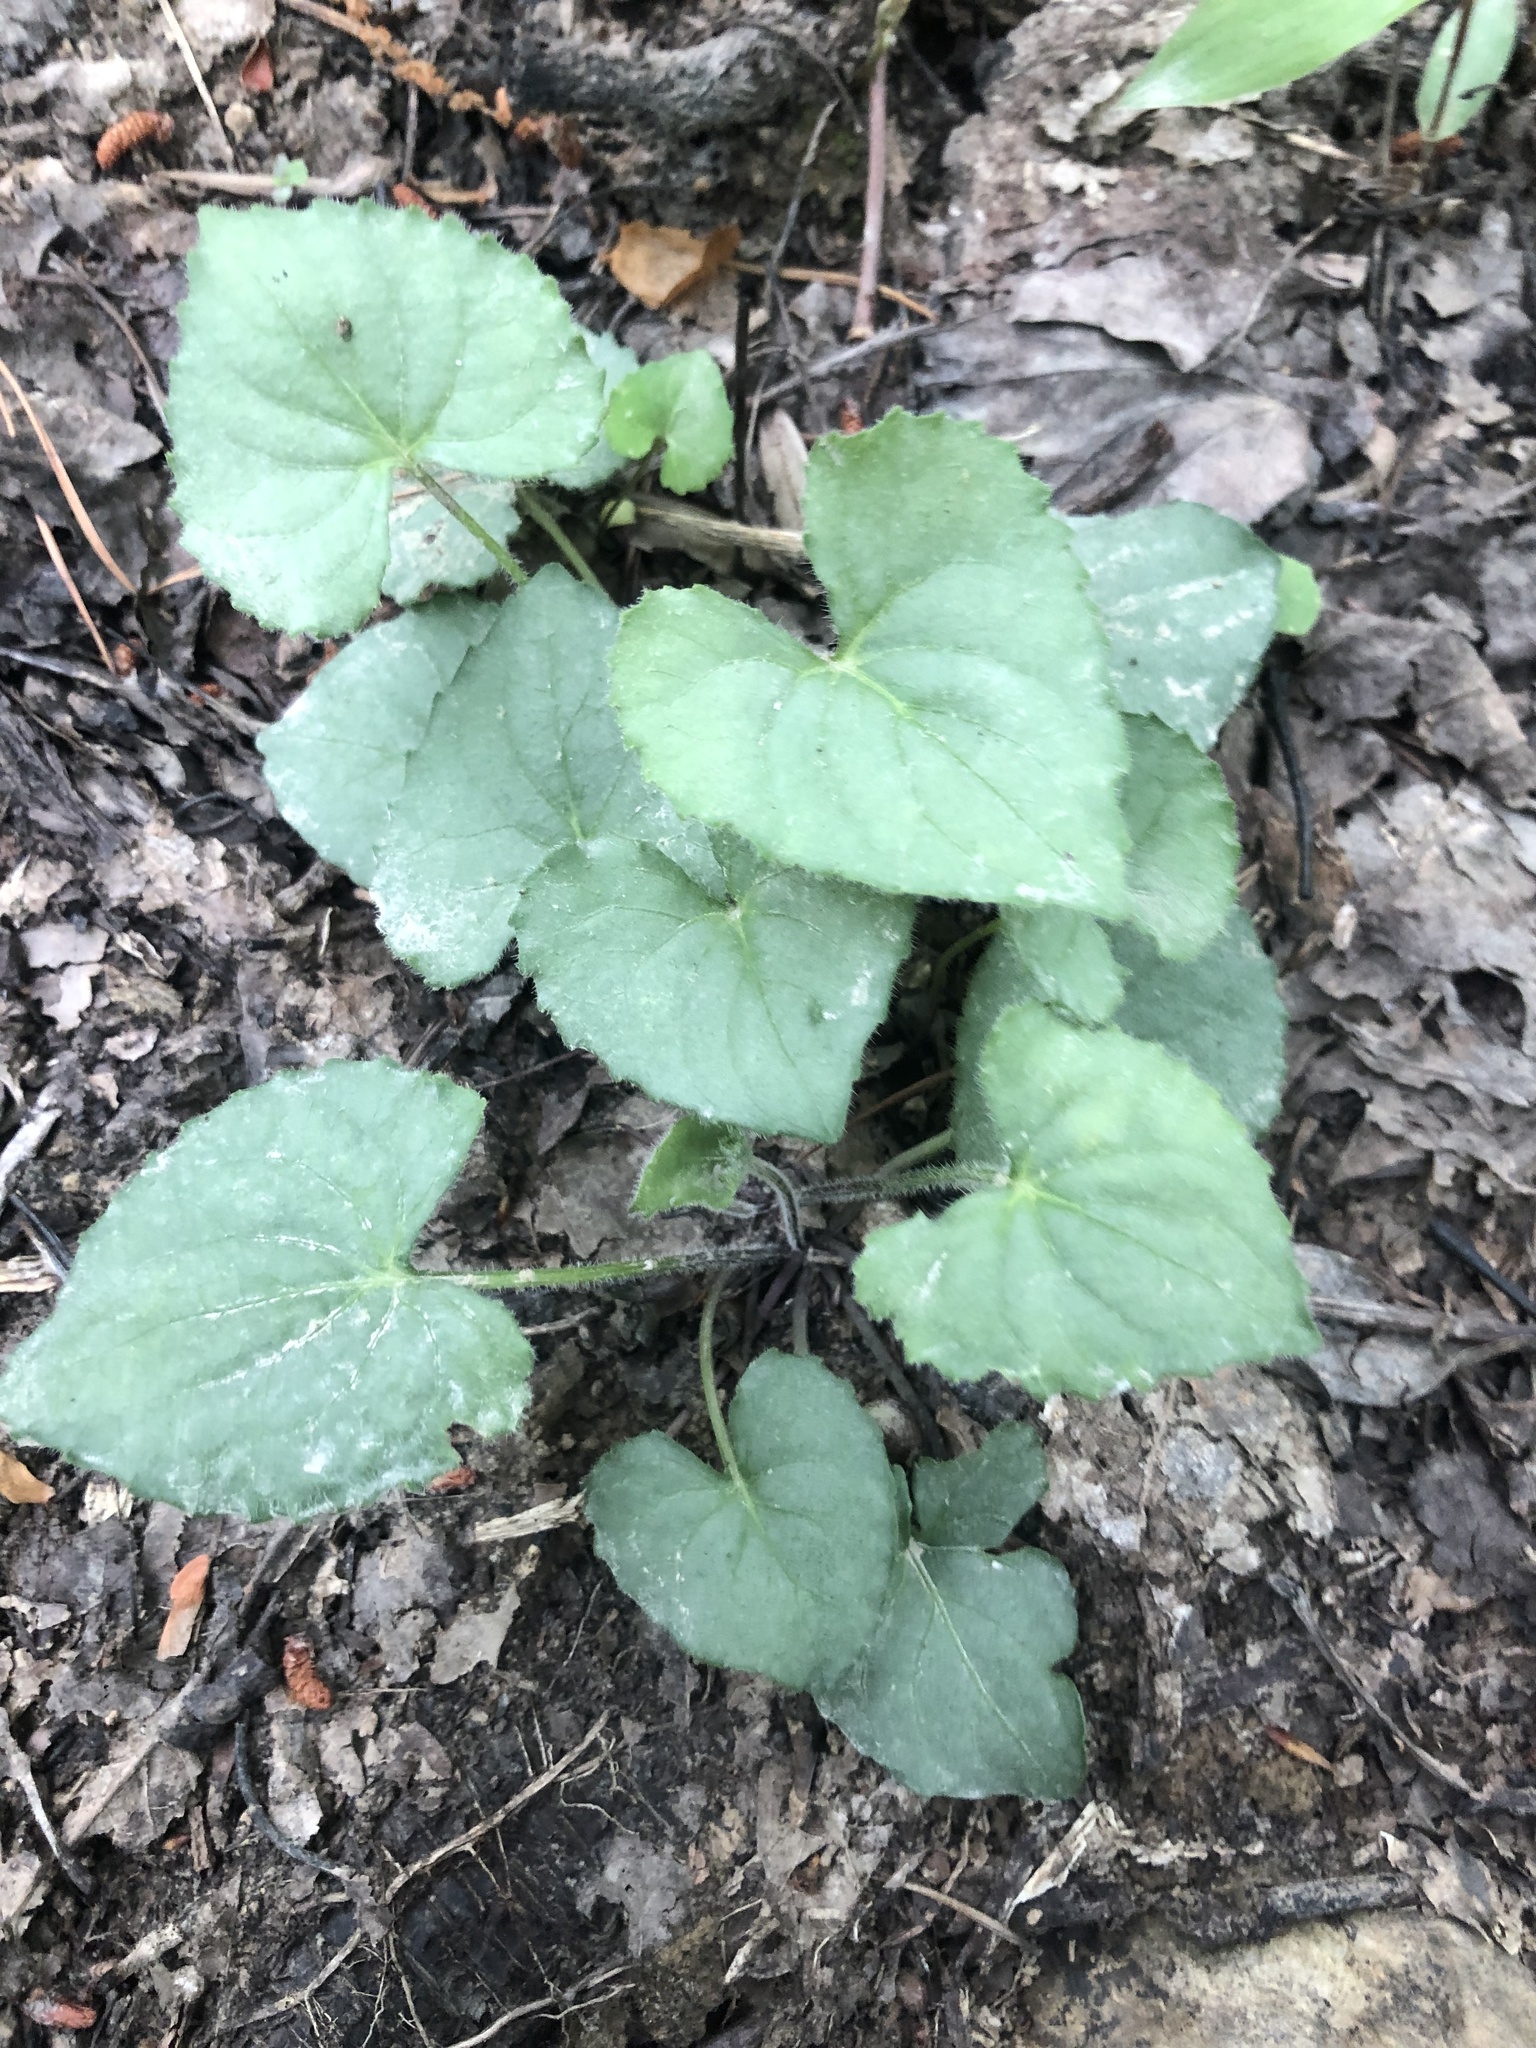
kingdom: Plantae
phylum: Tracheophyta
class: Magnoliopsida
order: Malpighiales
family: Violaceae
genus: Viola
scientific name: Viola hirsutula
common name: Southern wood violet
